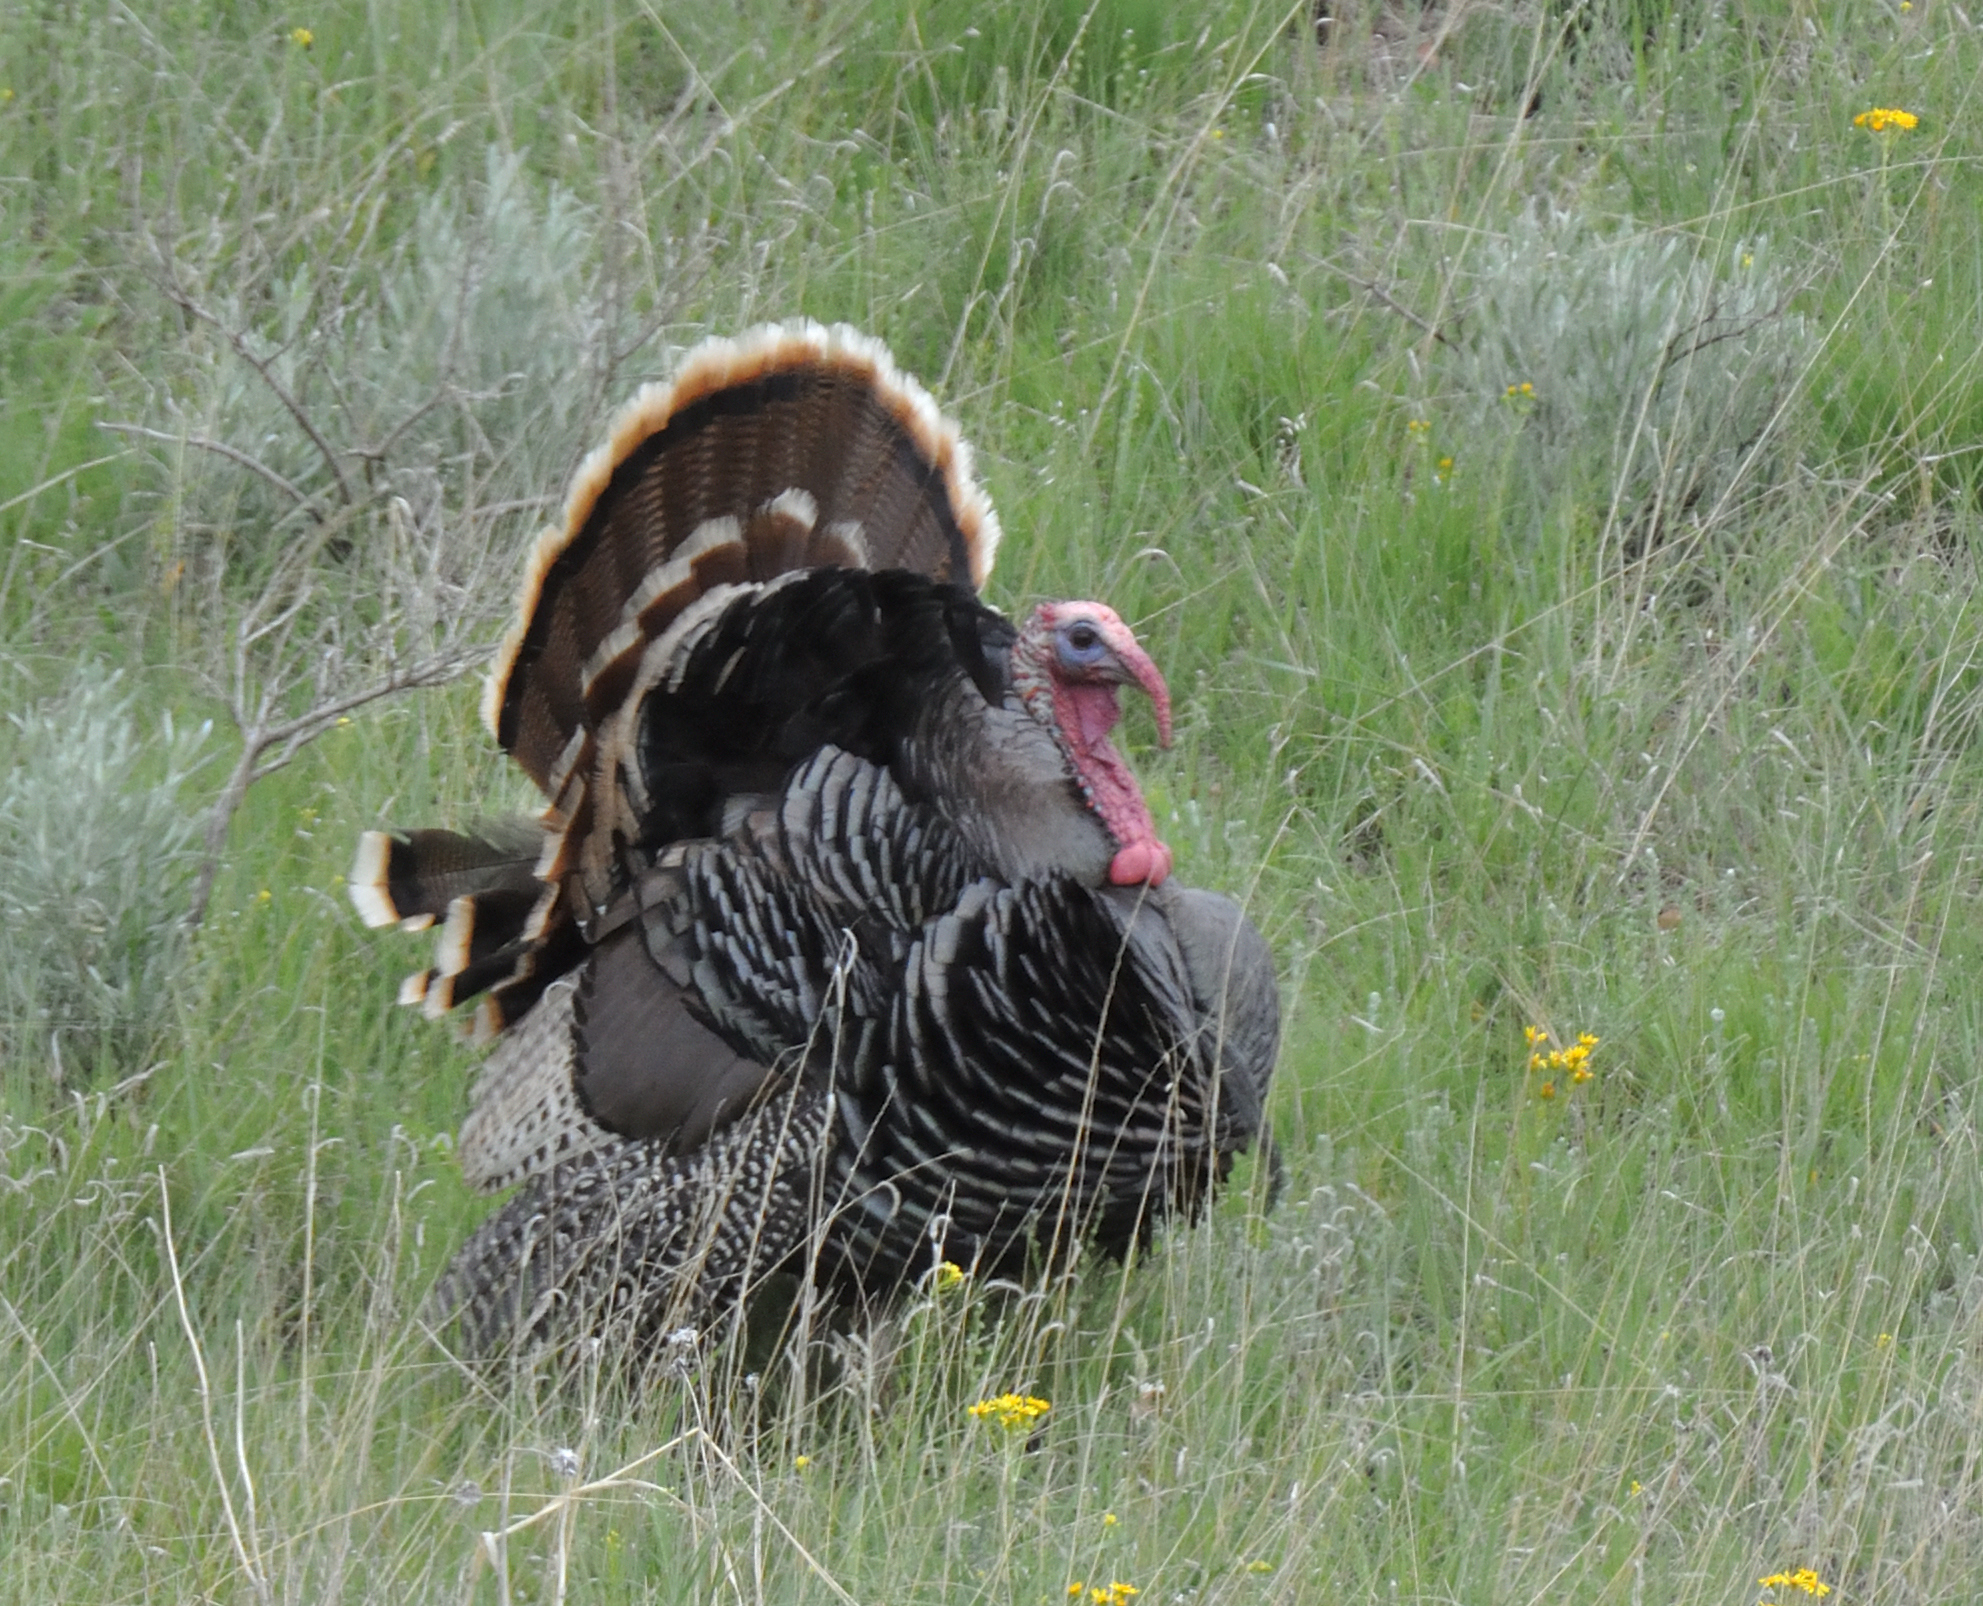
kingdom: Animalia
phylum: Chordata
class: Aves
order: Galliformes
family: Phasianidae
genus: Meleagris
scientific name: Meleagris gallopavo
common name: Wild turkey
